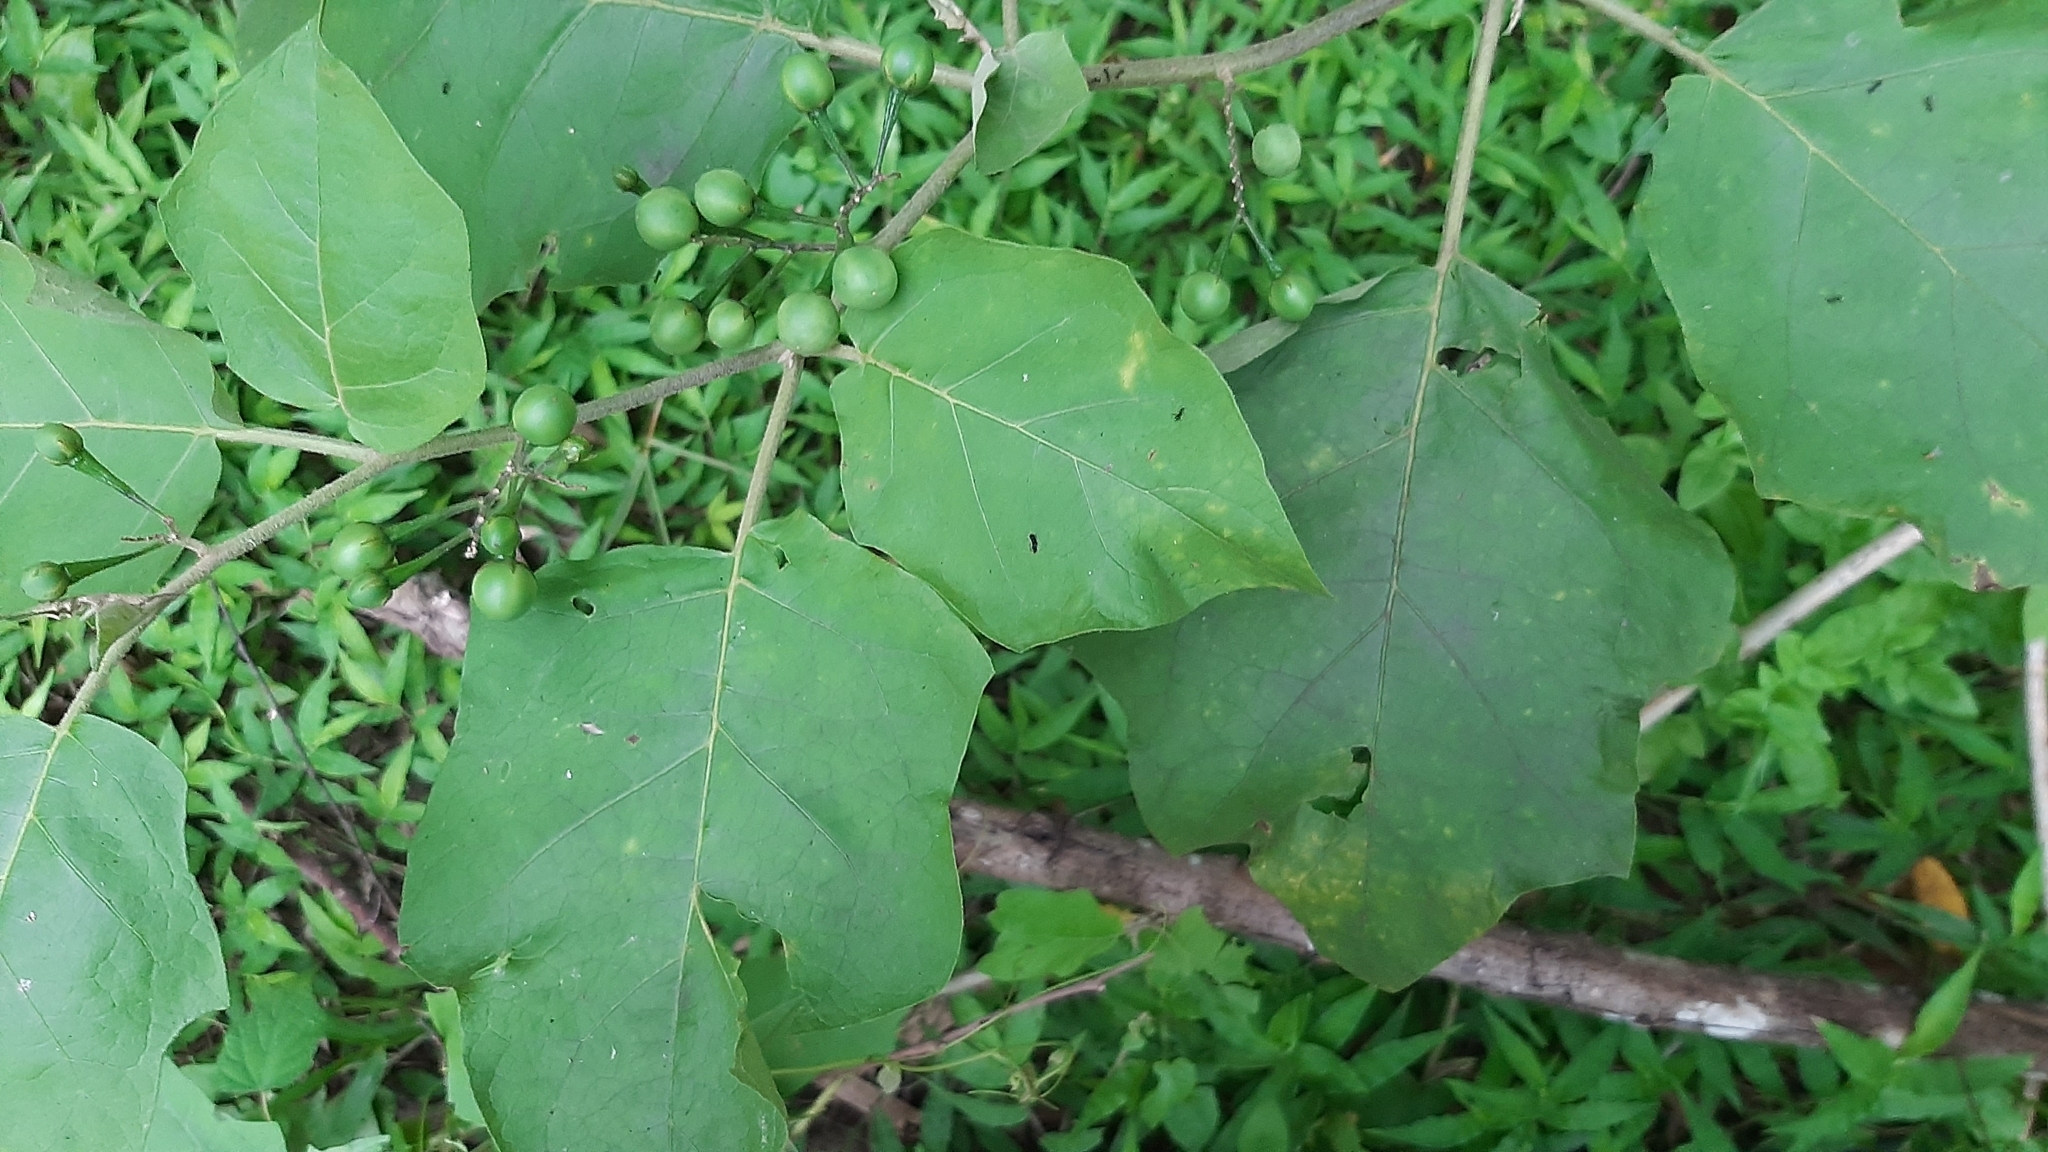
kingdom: Plantae
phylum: Tracheophyta
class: Magnoliopsida
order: Solanales
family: Solanaceae
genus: Solanum
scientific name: Solanum torvum
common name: Turkey berry
